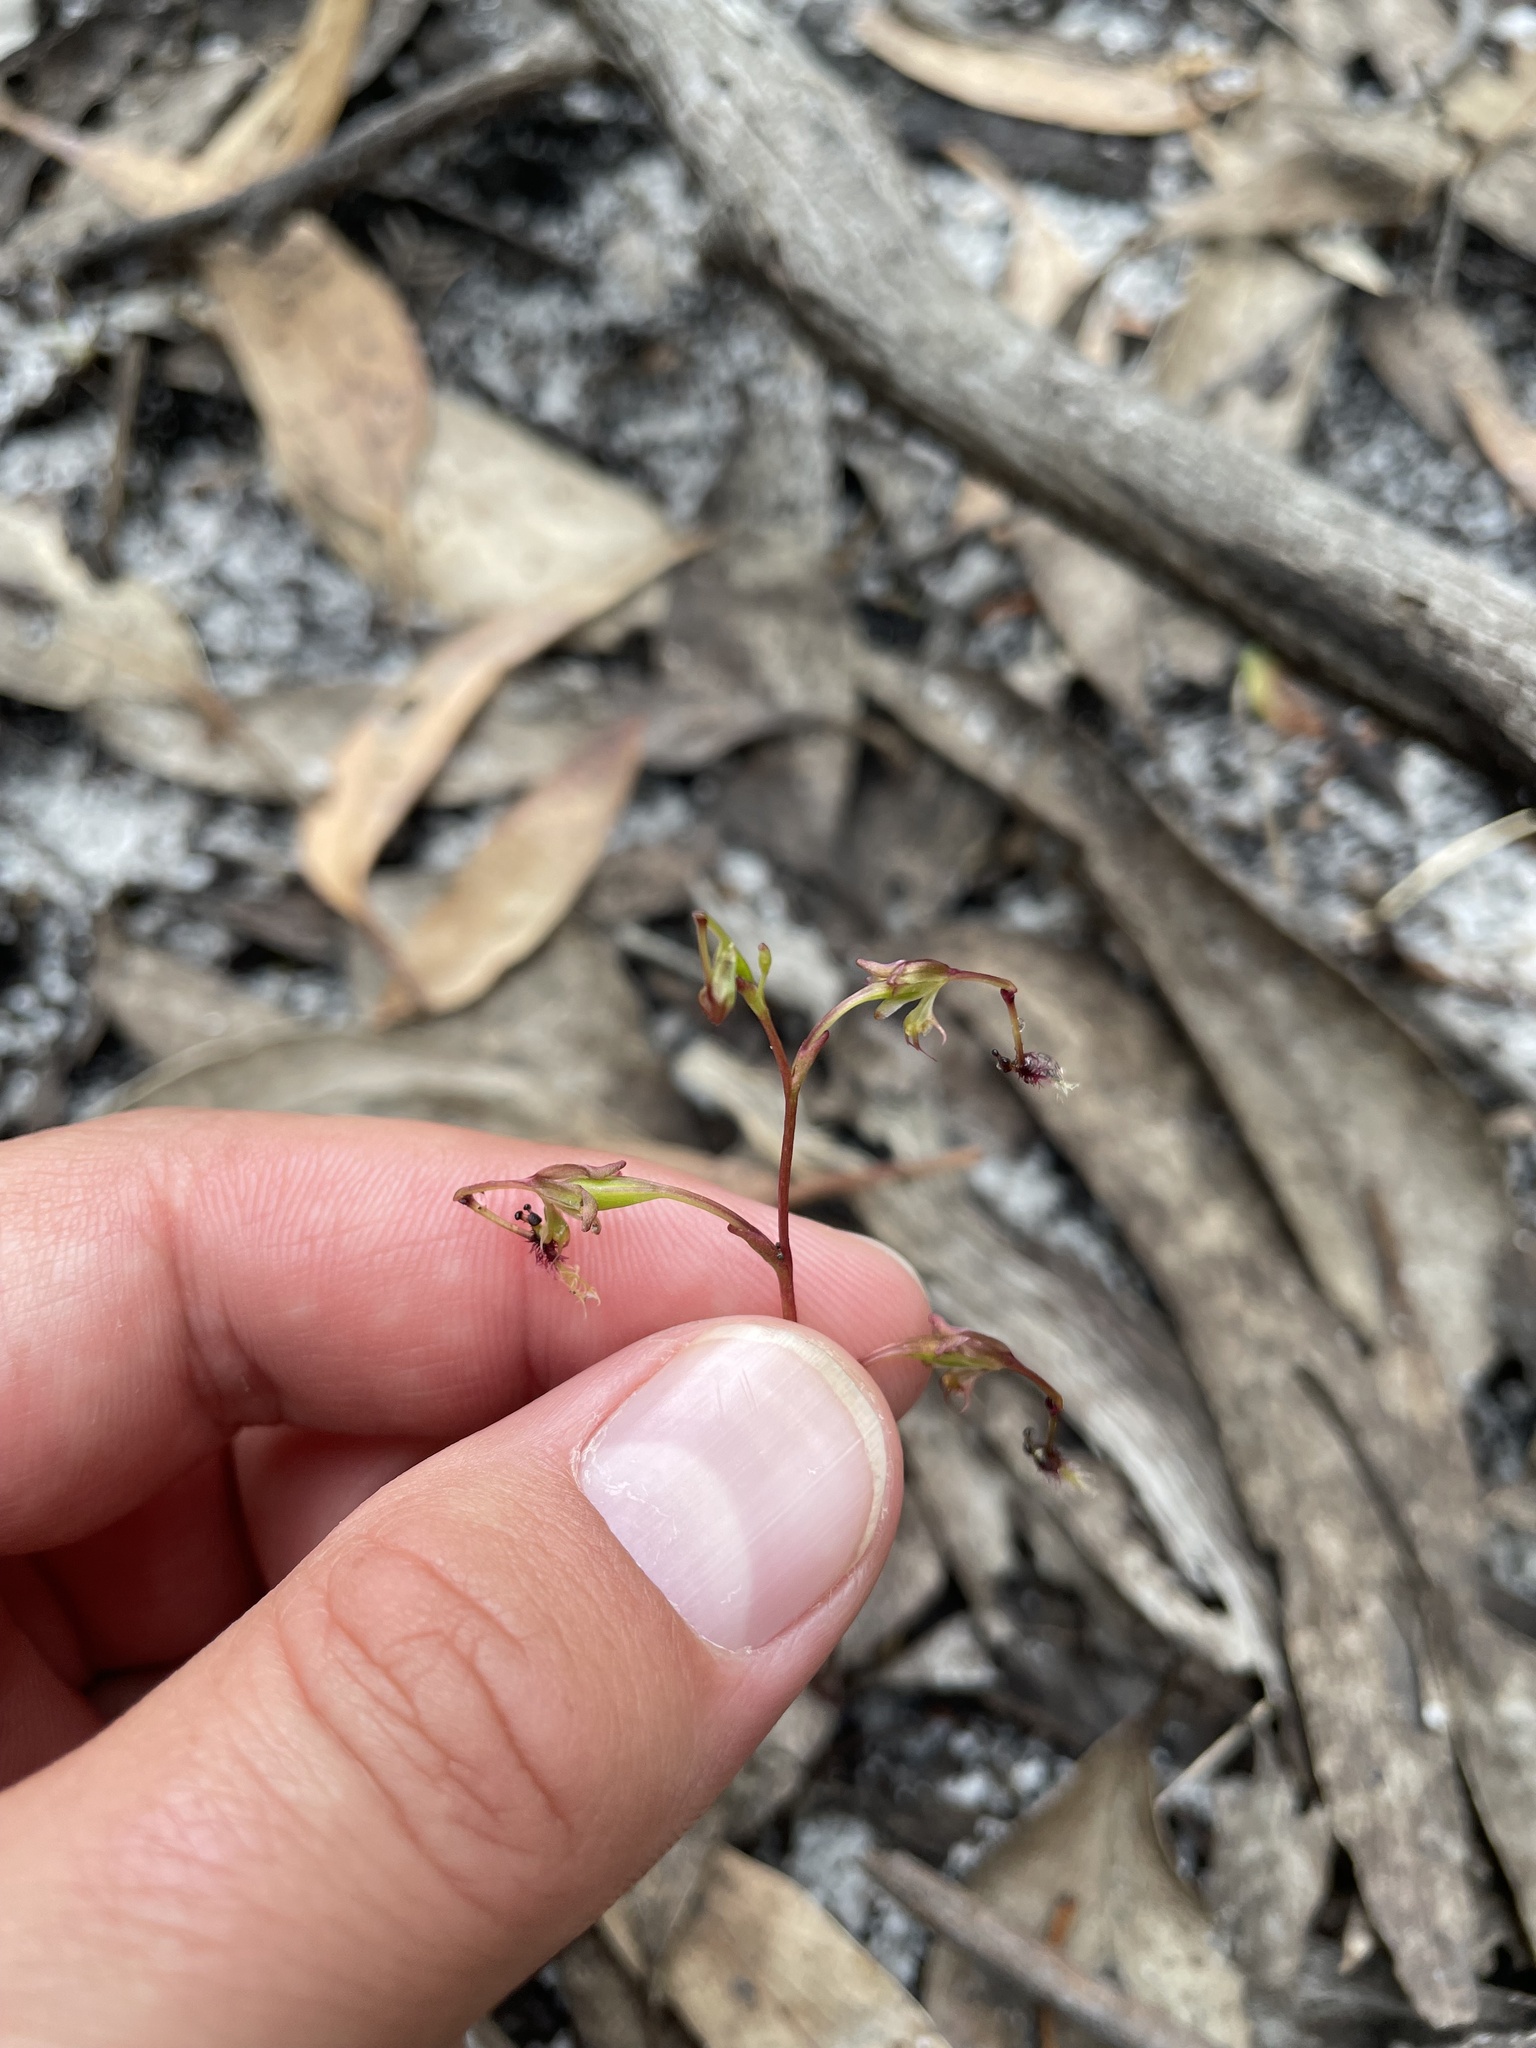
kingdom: Plantae
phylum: Tracheophyta
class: Liliopsida
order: Asparagales
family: Orchidaceae
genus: Arthrochilus
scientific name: Arthrochilus huntianus
